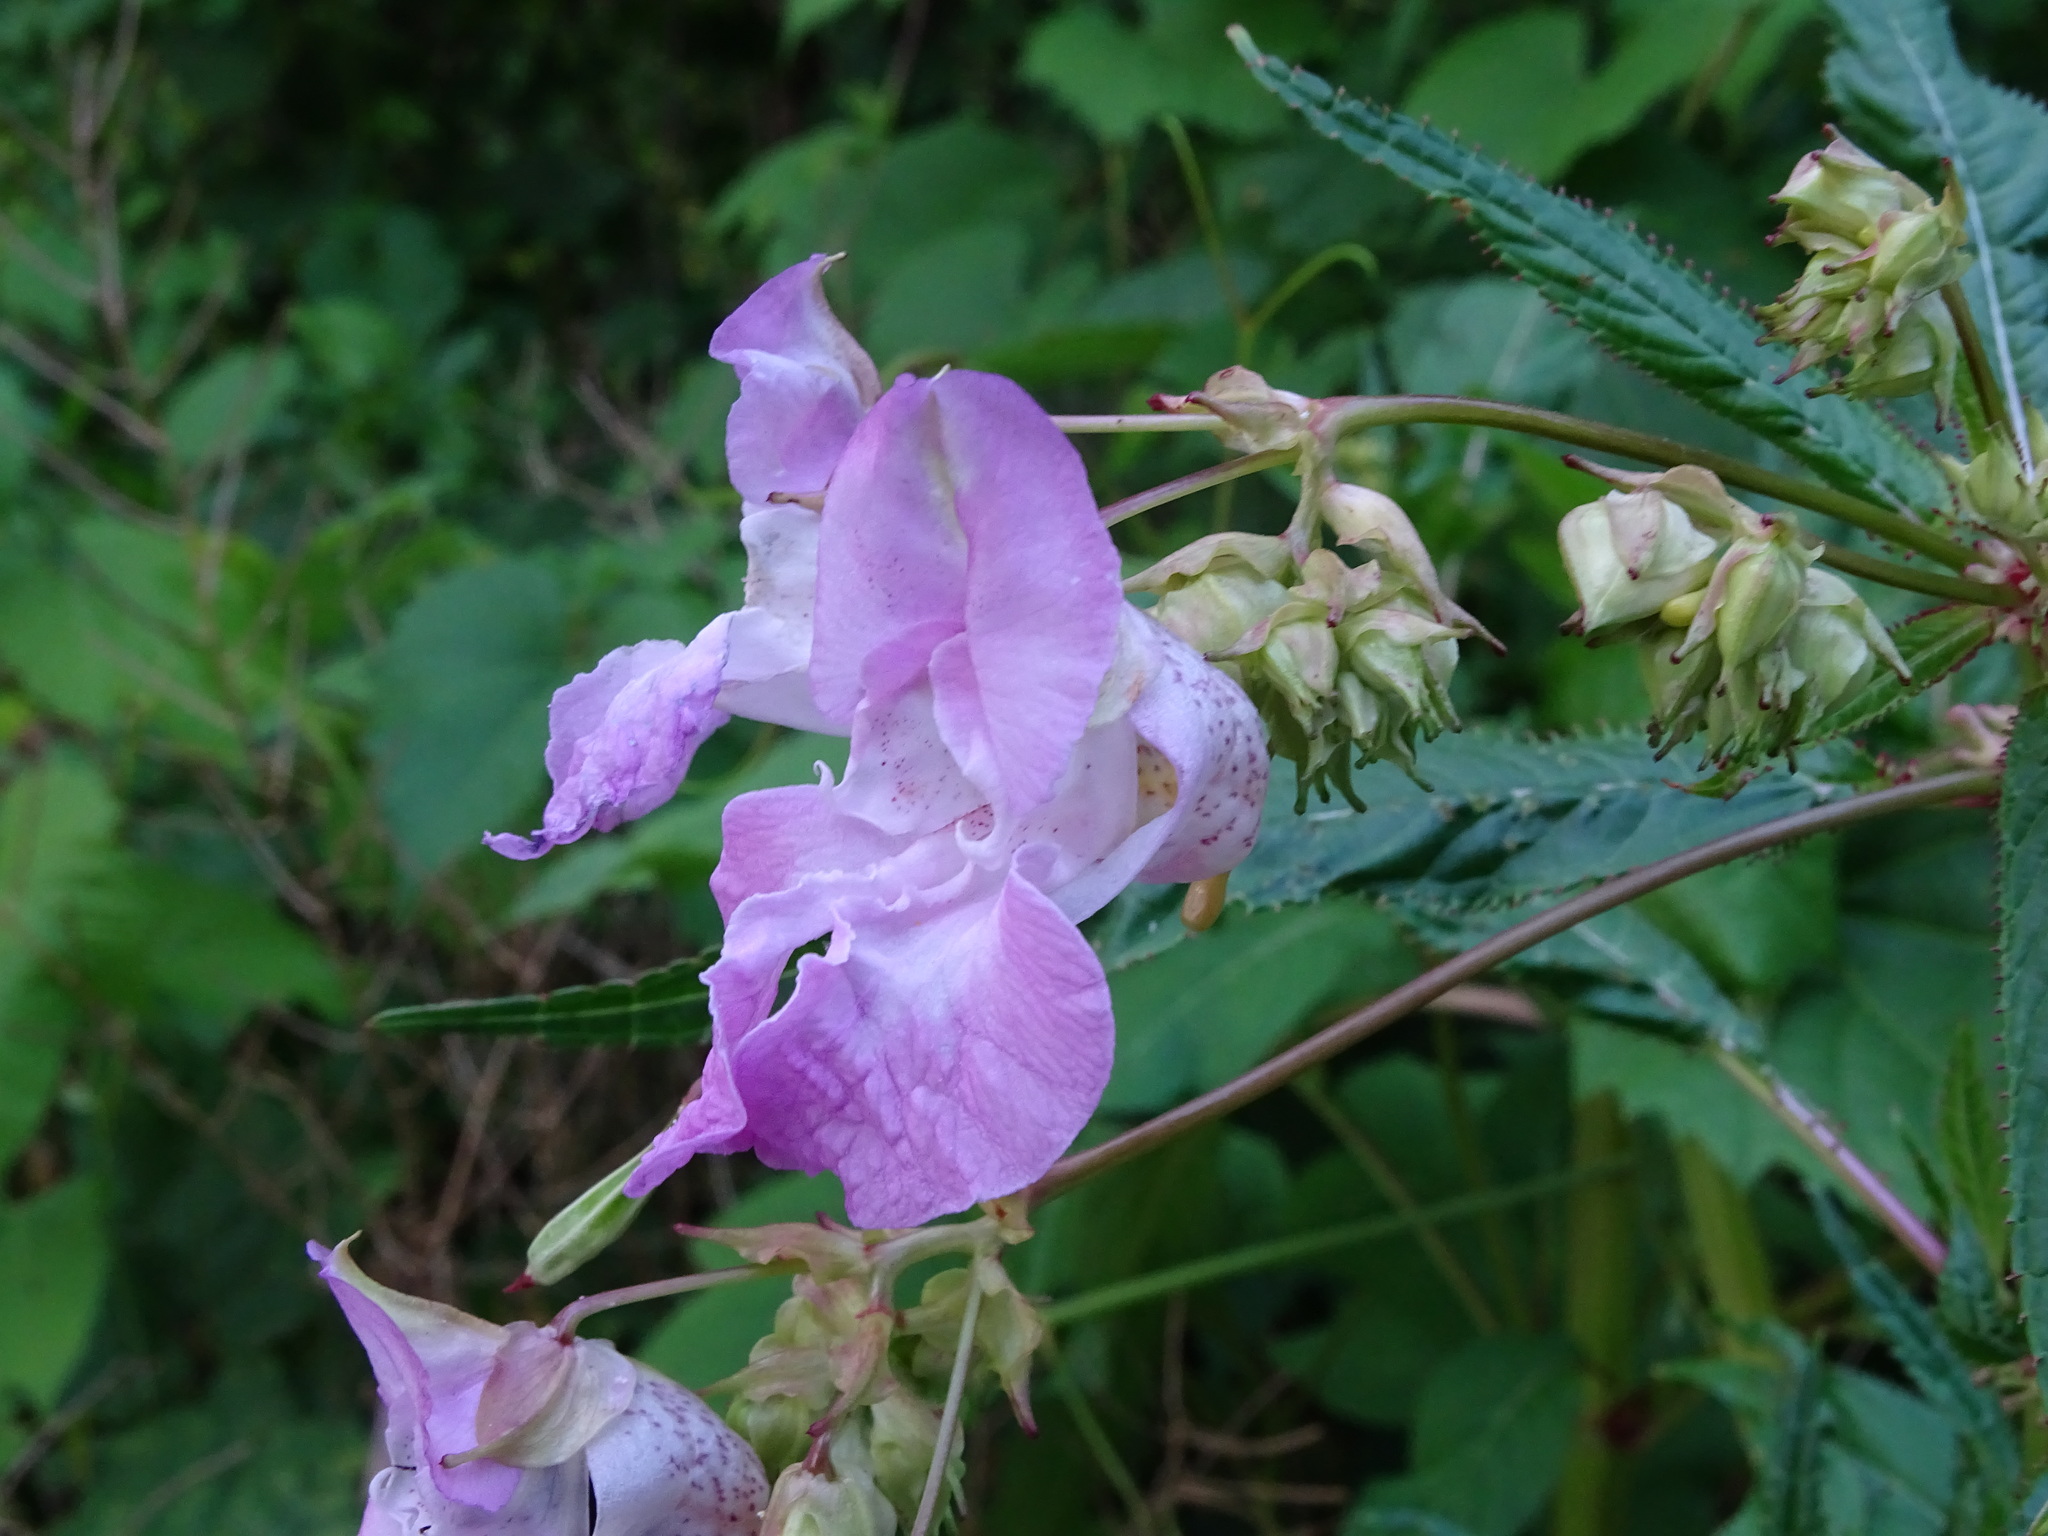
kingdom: Plantae
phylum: Tracheophyta
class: Magnoliopsida
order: Ericales
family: Balsaminaceae
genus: Impatiens
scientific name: Impatiens glandulifera
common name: Himalayan balsam
